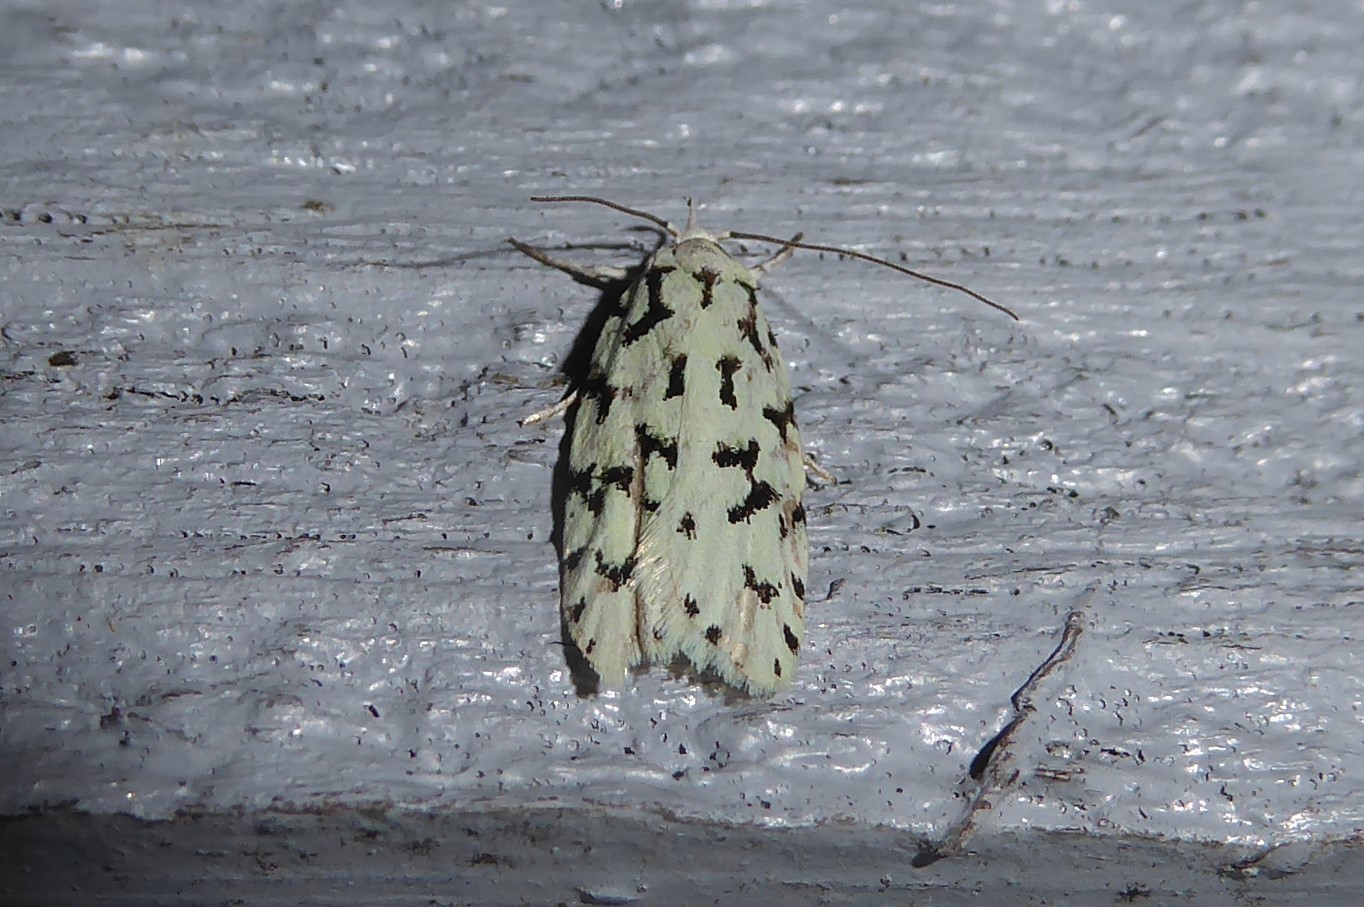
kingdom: Animalia
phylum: Arthropoda
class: Insecta
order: Lepidoptera
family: Oecophoridae
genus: Izatha
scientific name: Izatha huttoni
